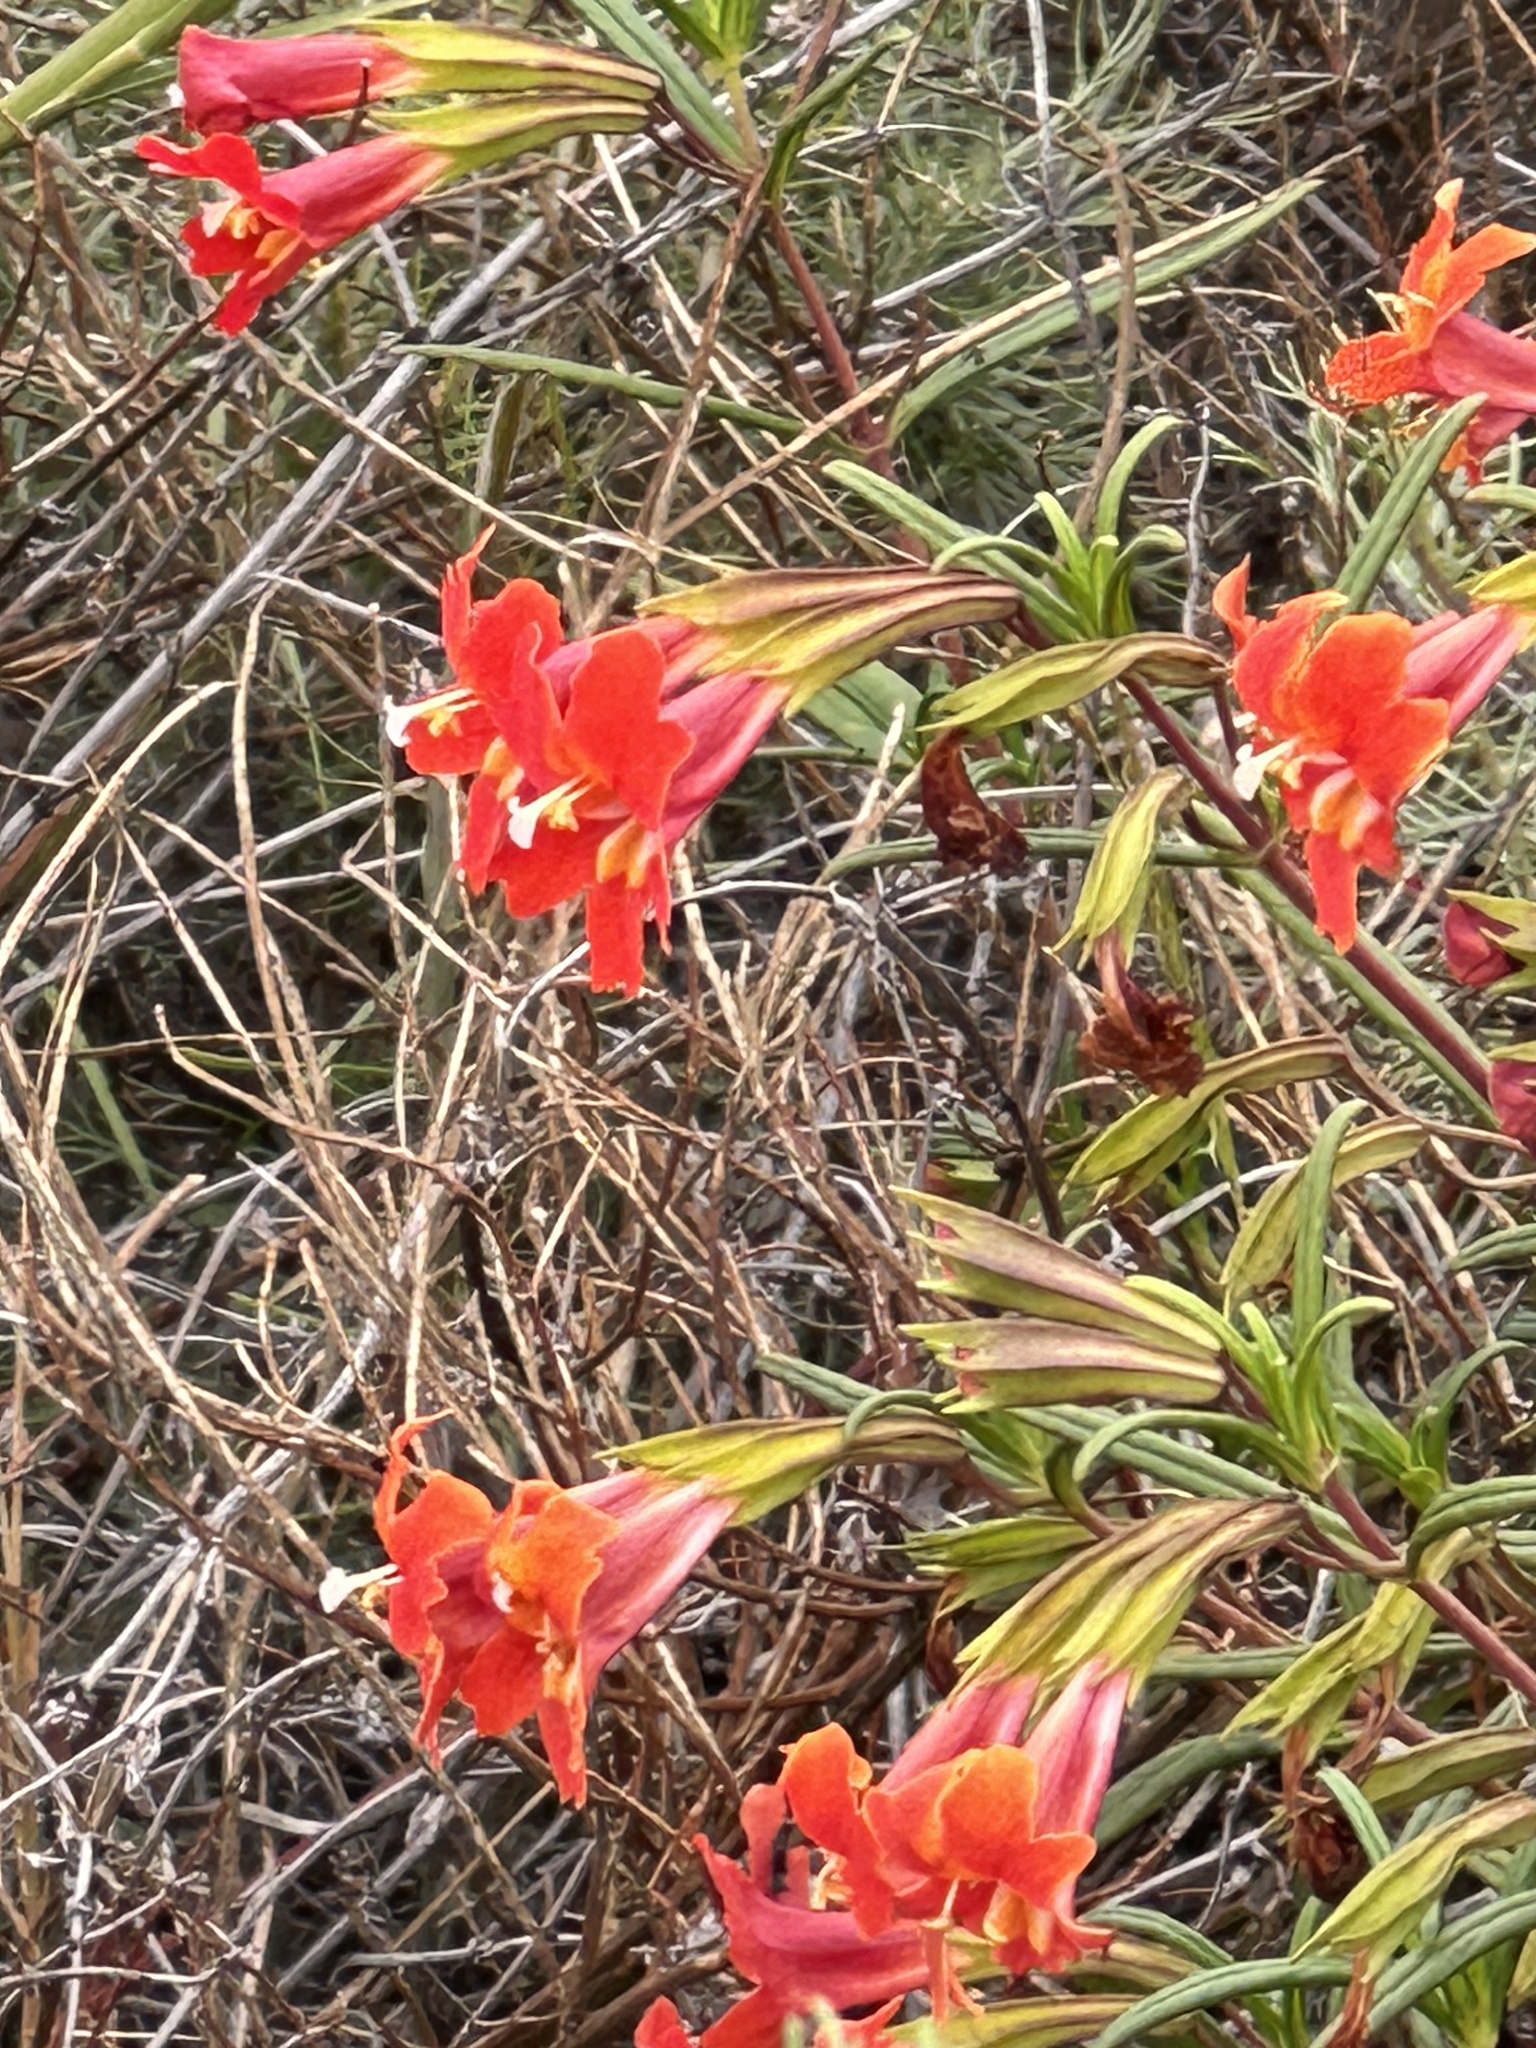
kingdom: Plantae
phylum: Tracheophyta
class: Magnoliopsida
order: Lamiales
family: Phrymaceae
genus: Diplacus
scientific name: Diplacus puniceus
